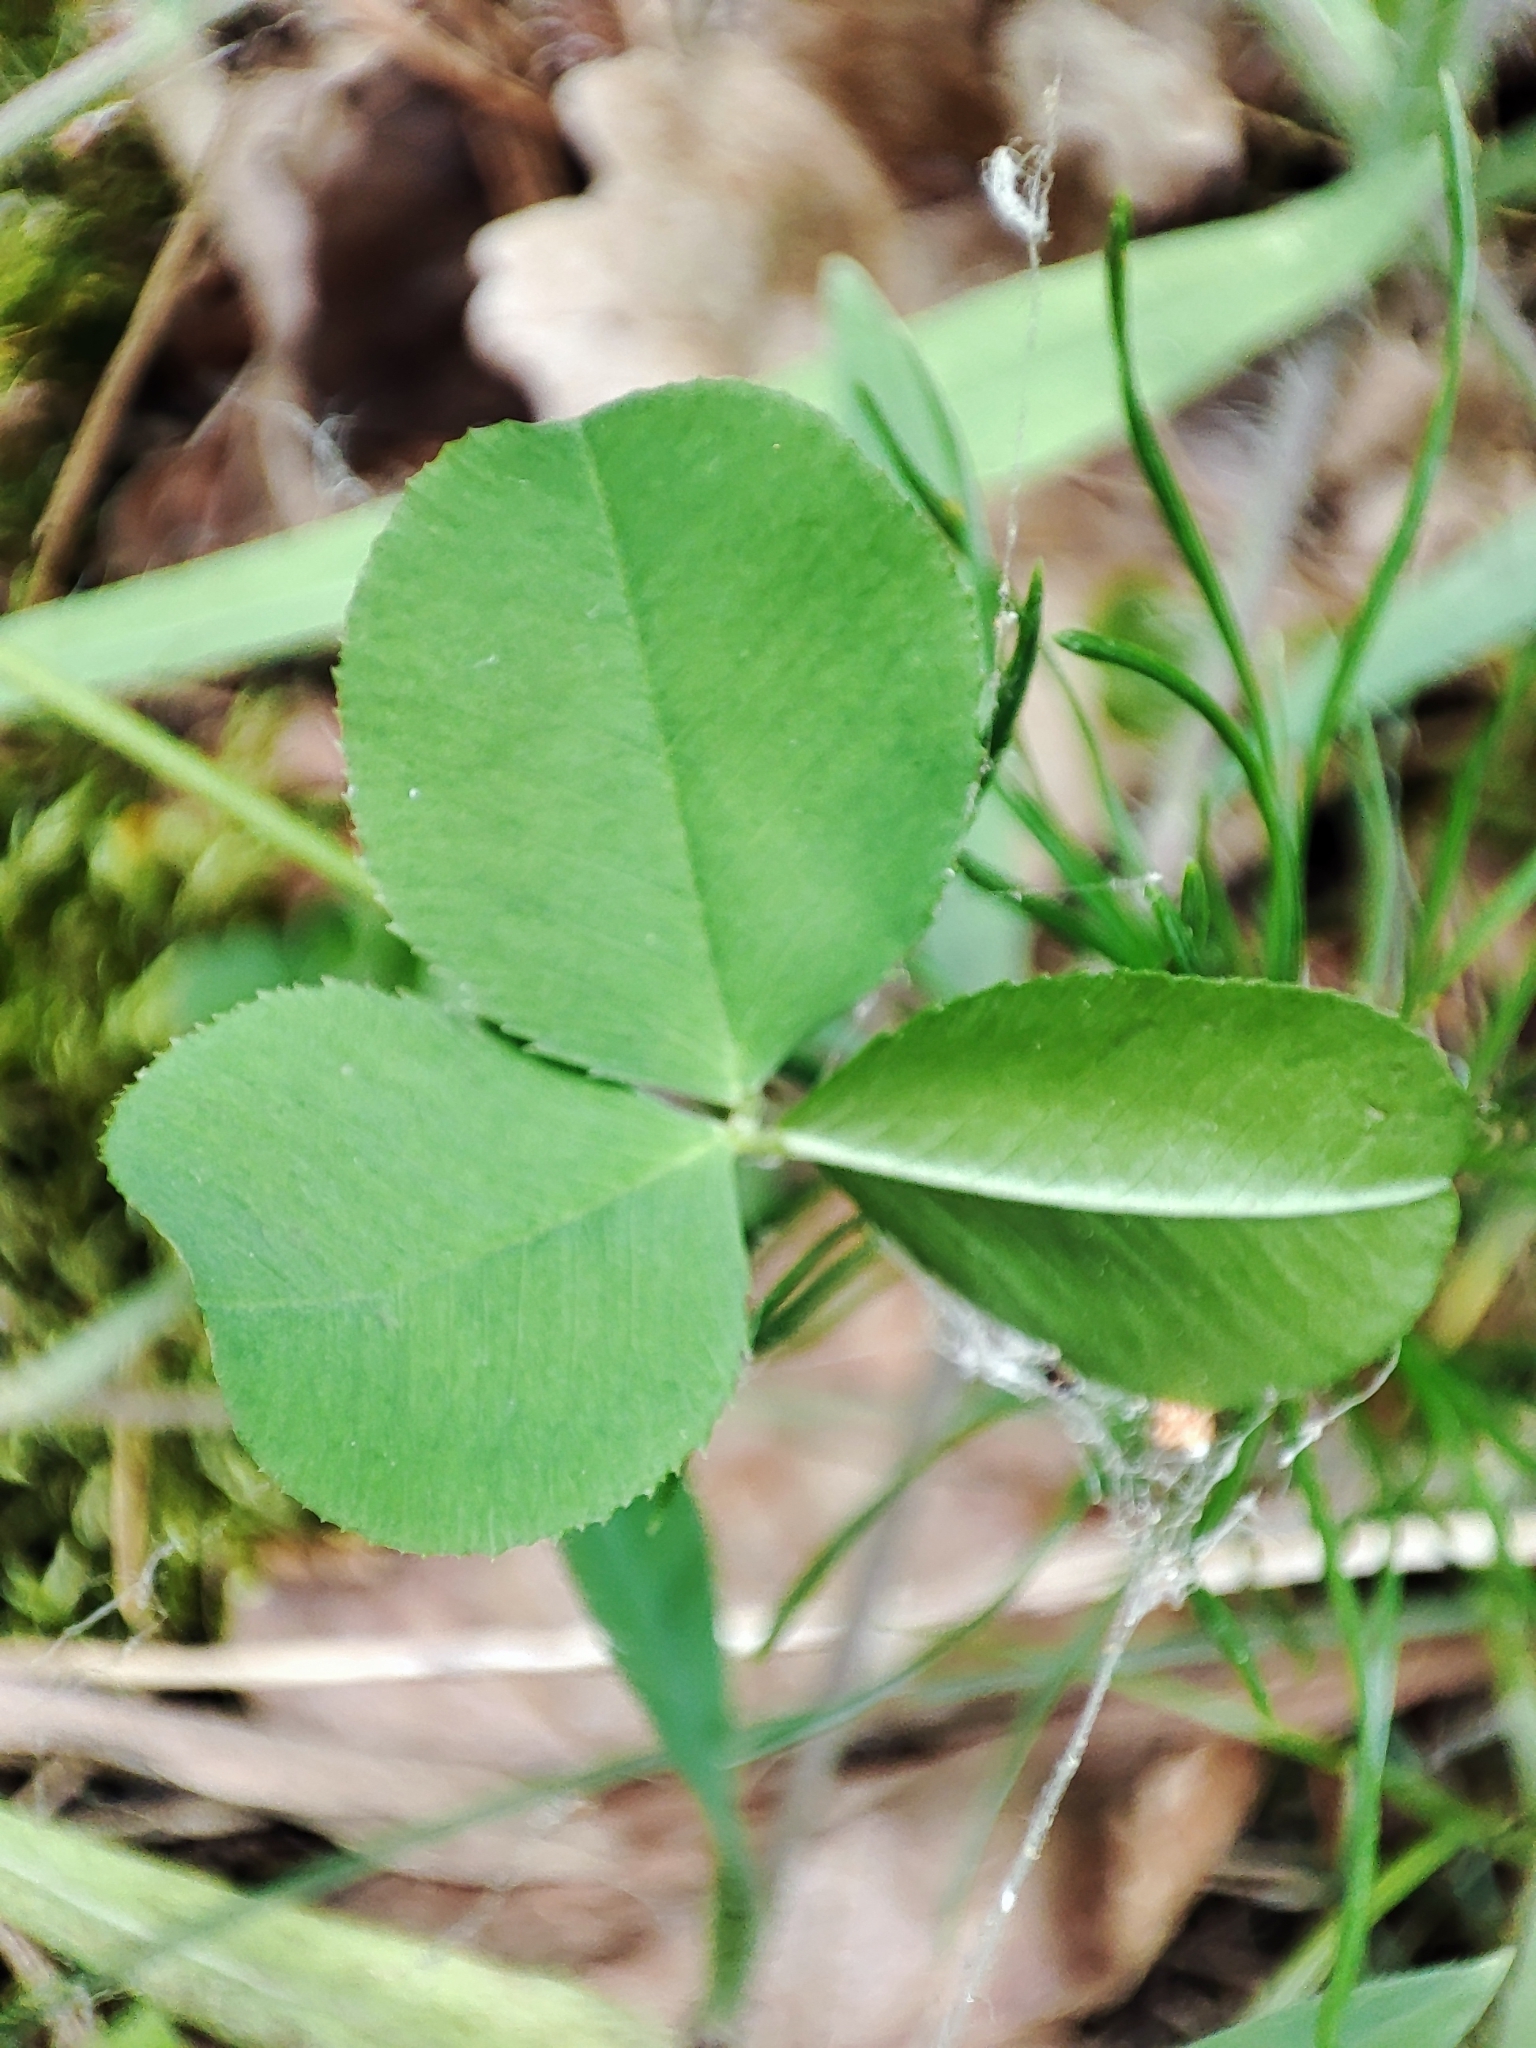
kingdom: Plantae
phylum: Tracheophyta
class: Magnoliopsida
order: Fabales
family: Fabaceae
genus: Trifolium
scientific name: Trifolium repens
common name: White clover
